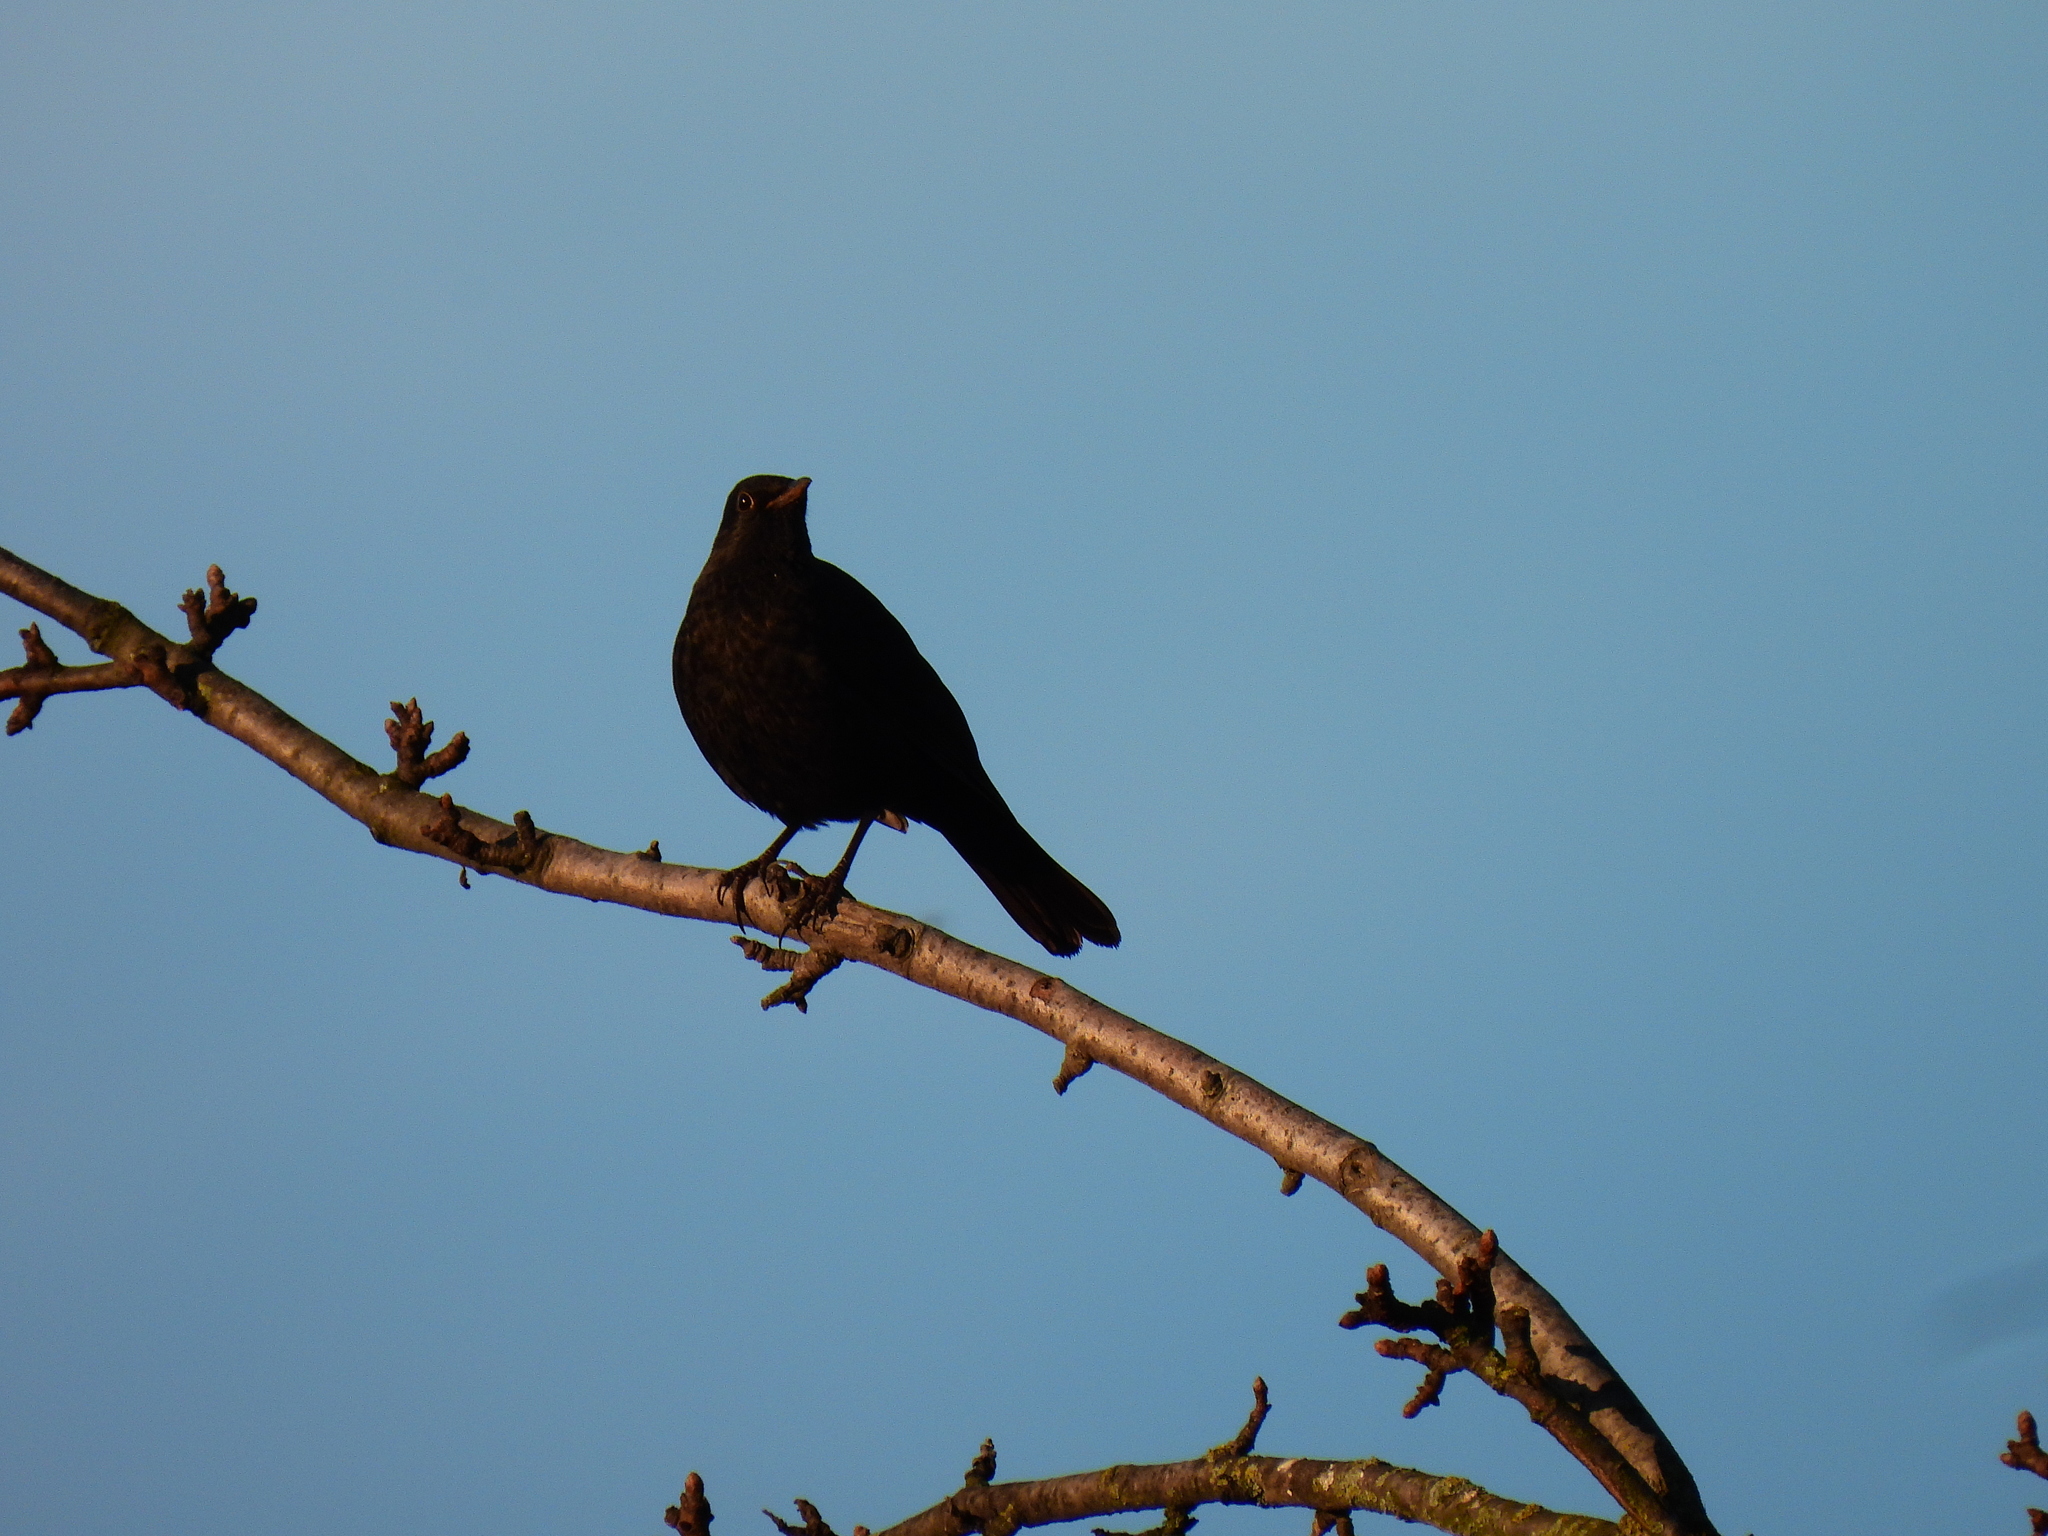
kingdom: Animalia
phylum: Chordata
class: Aves
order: Passeriformes
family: Turdidae
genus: Turdus
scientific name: Turdus merula
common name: Common blackbird
